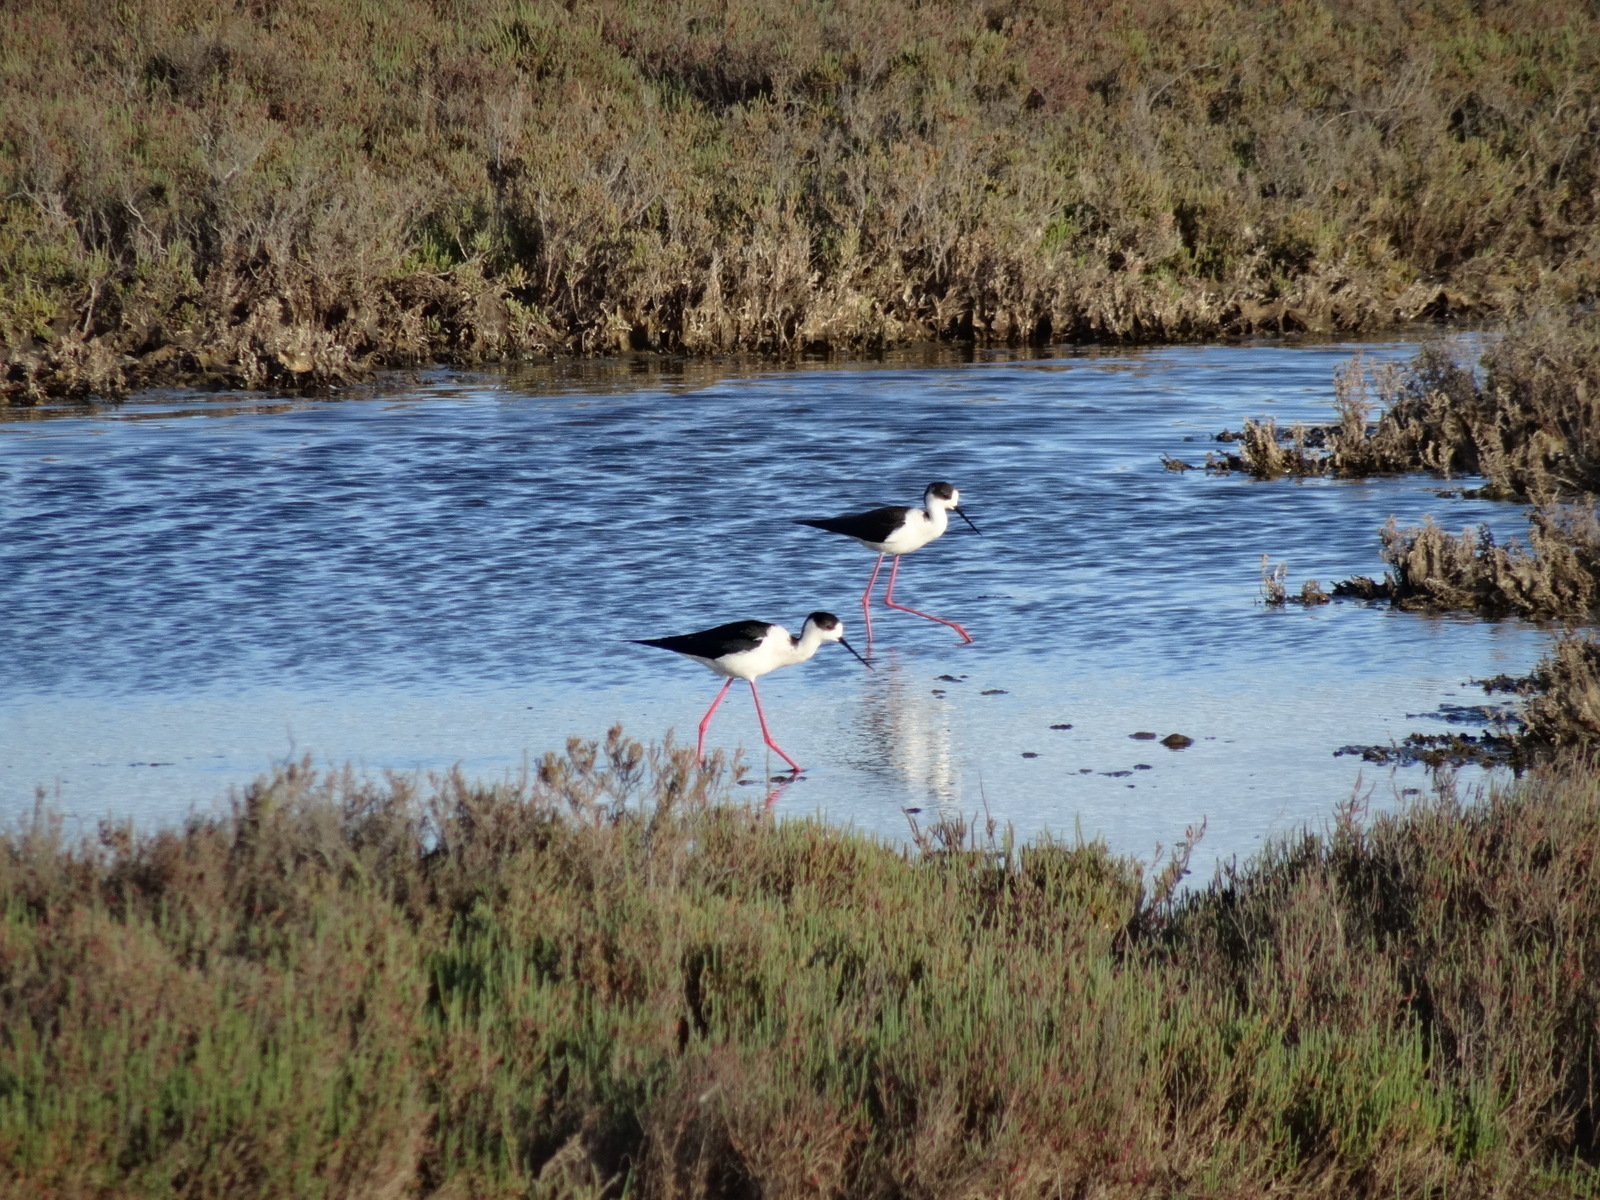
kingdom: Animalia
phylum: Chordata
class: Aves
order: Charadriiformes
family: Recurvirostridae
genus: Himantopus
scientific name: Himantopus himantopus
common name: Black-winged stilt
